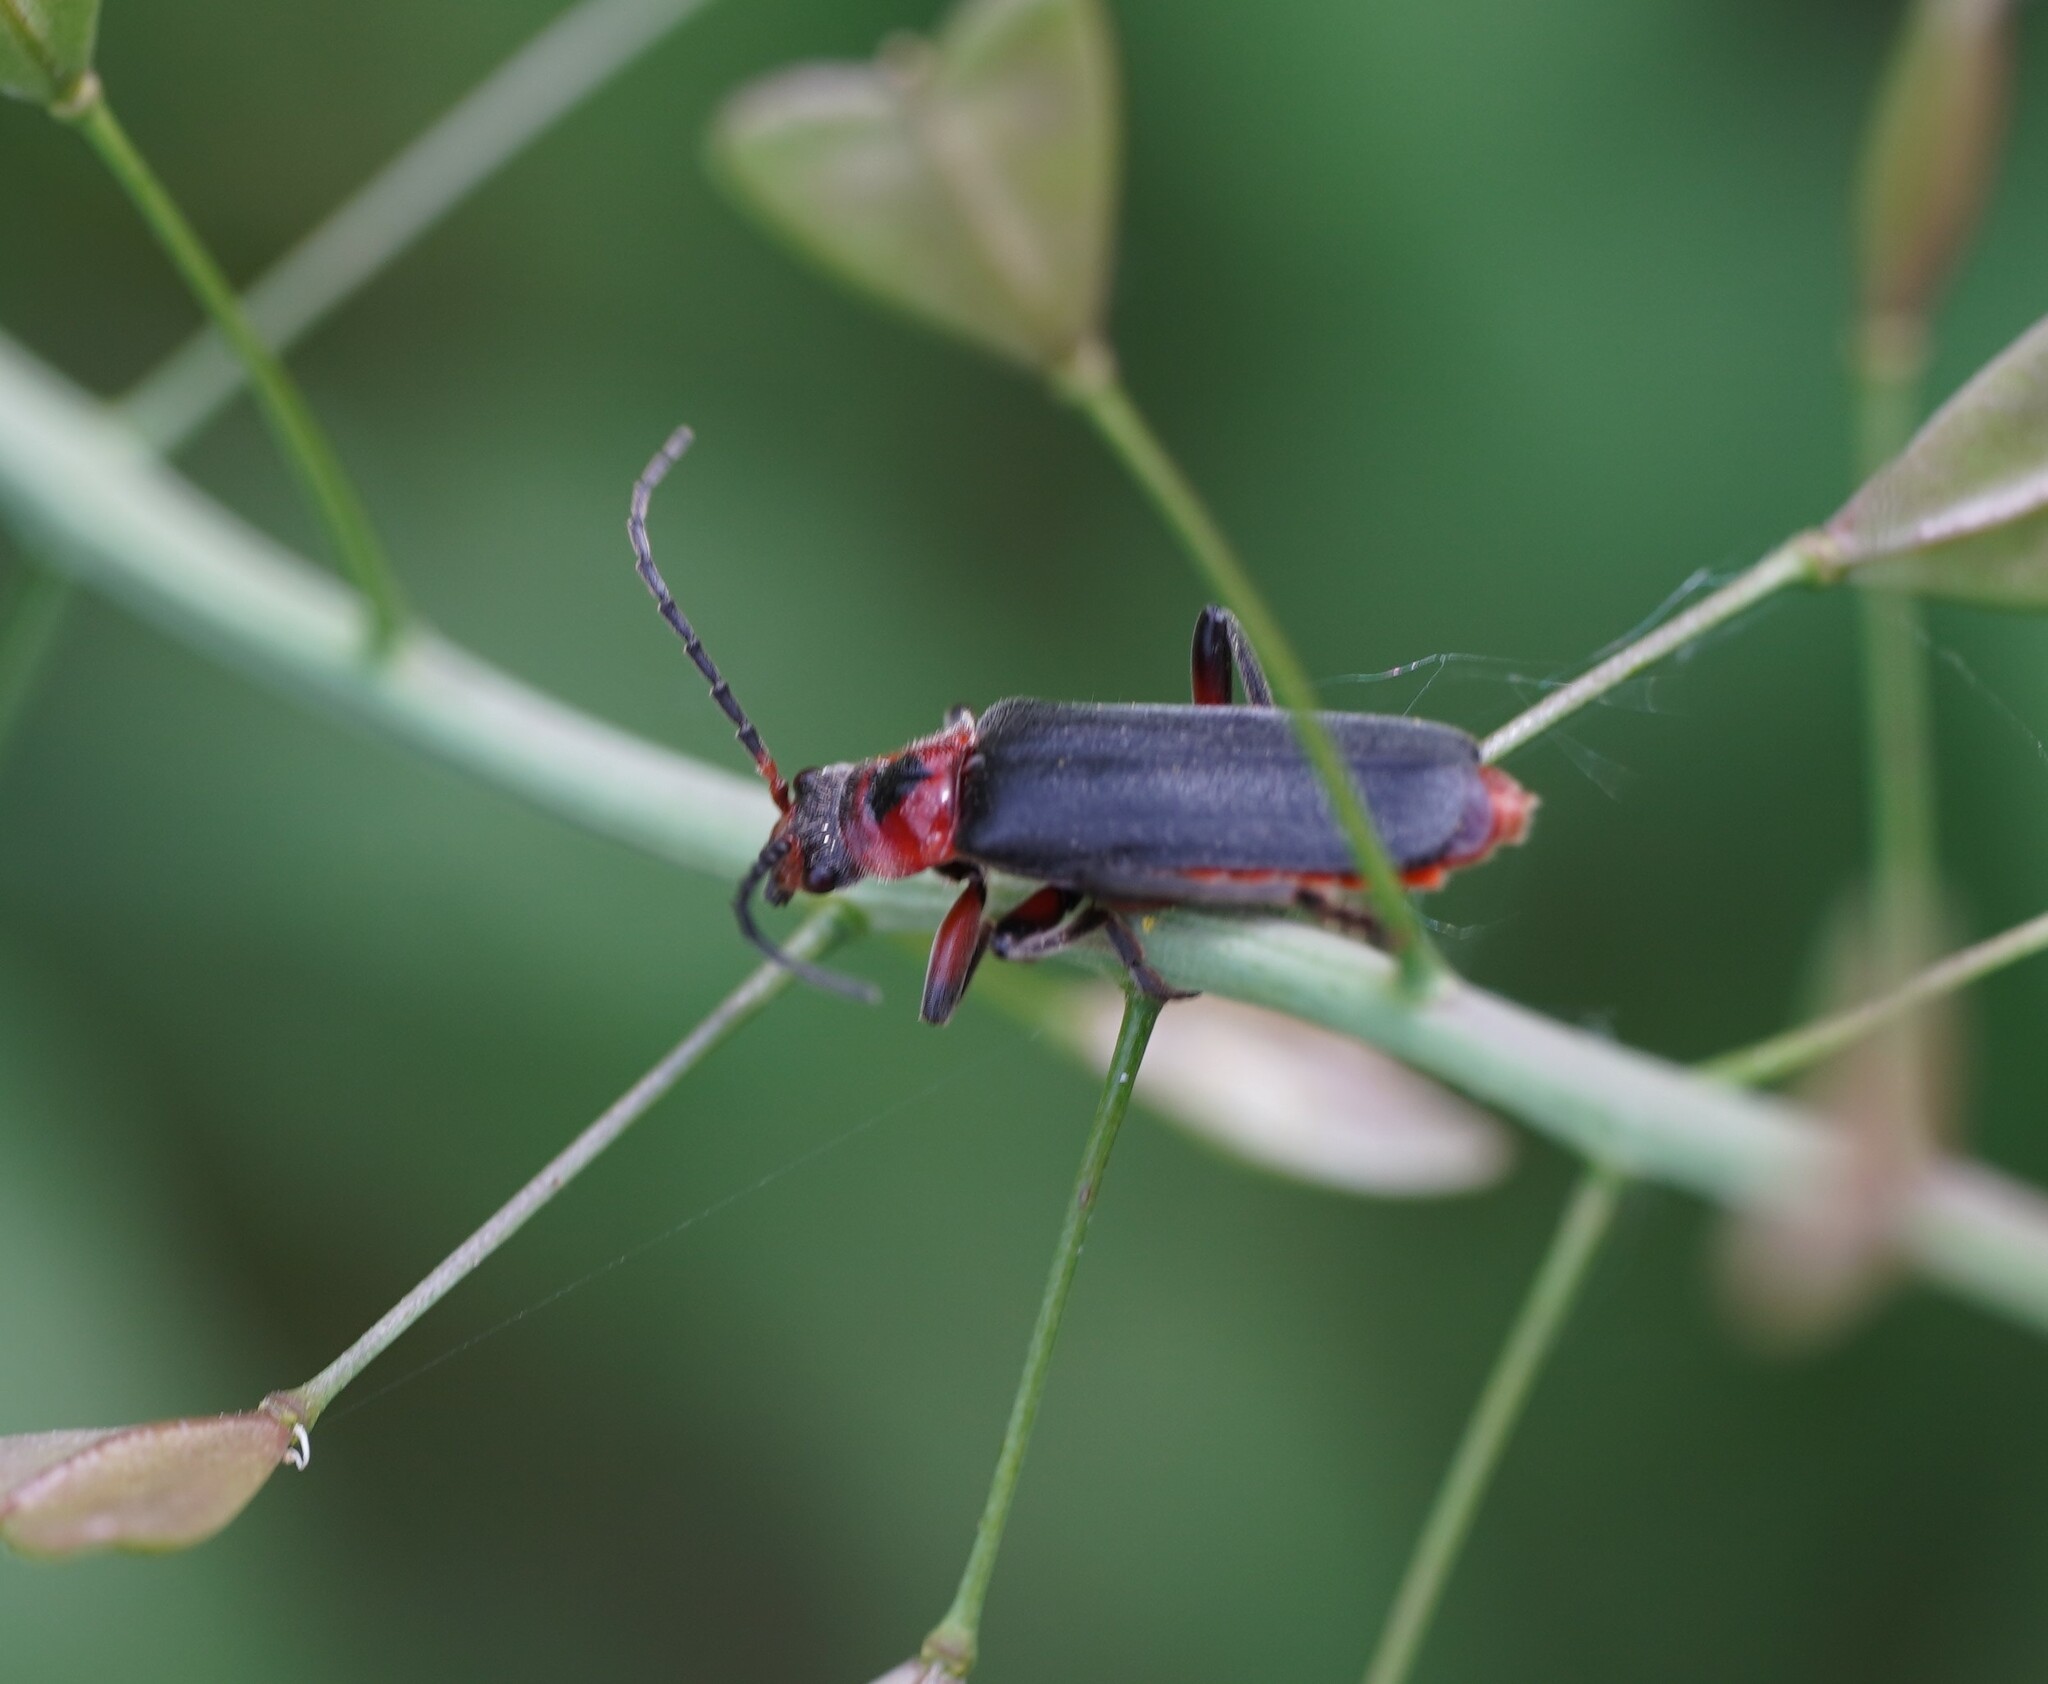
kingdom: Animalia
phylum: Arthropoda
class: Insecta
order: Coleoptera
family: Cantharidae
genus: Cantharis
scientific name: Cantharis rustica
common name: Soldier beetle
